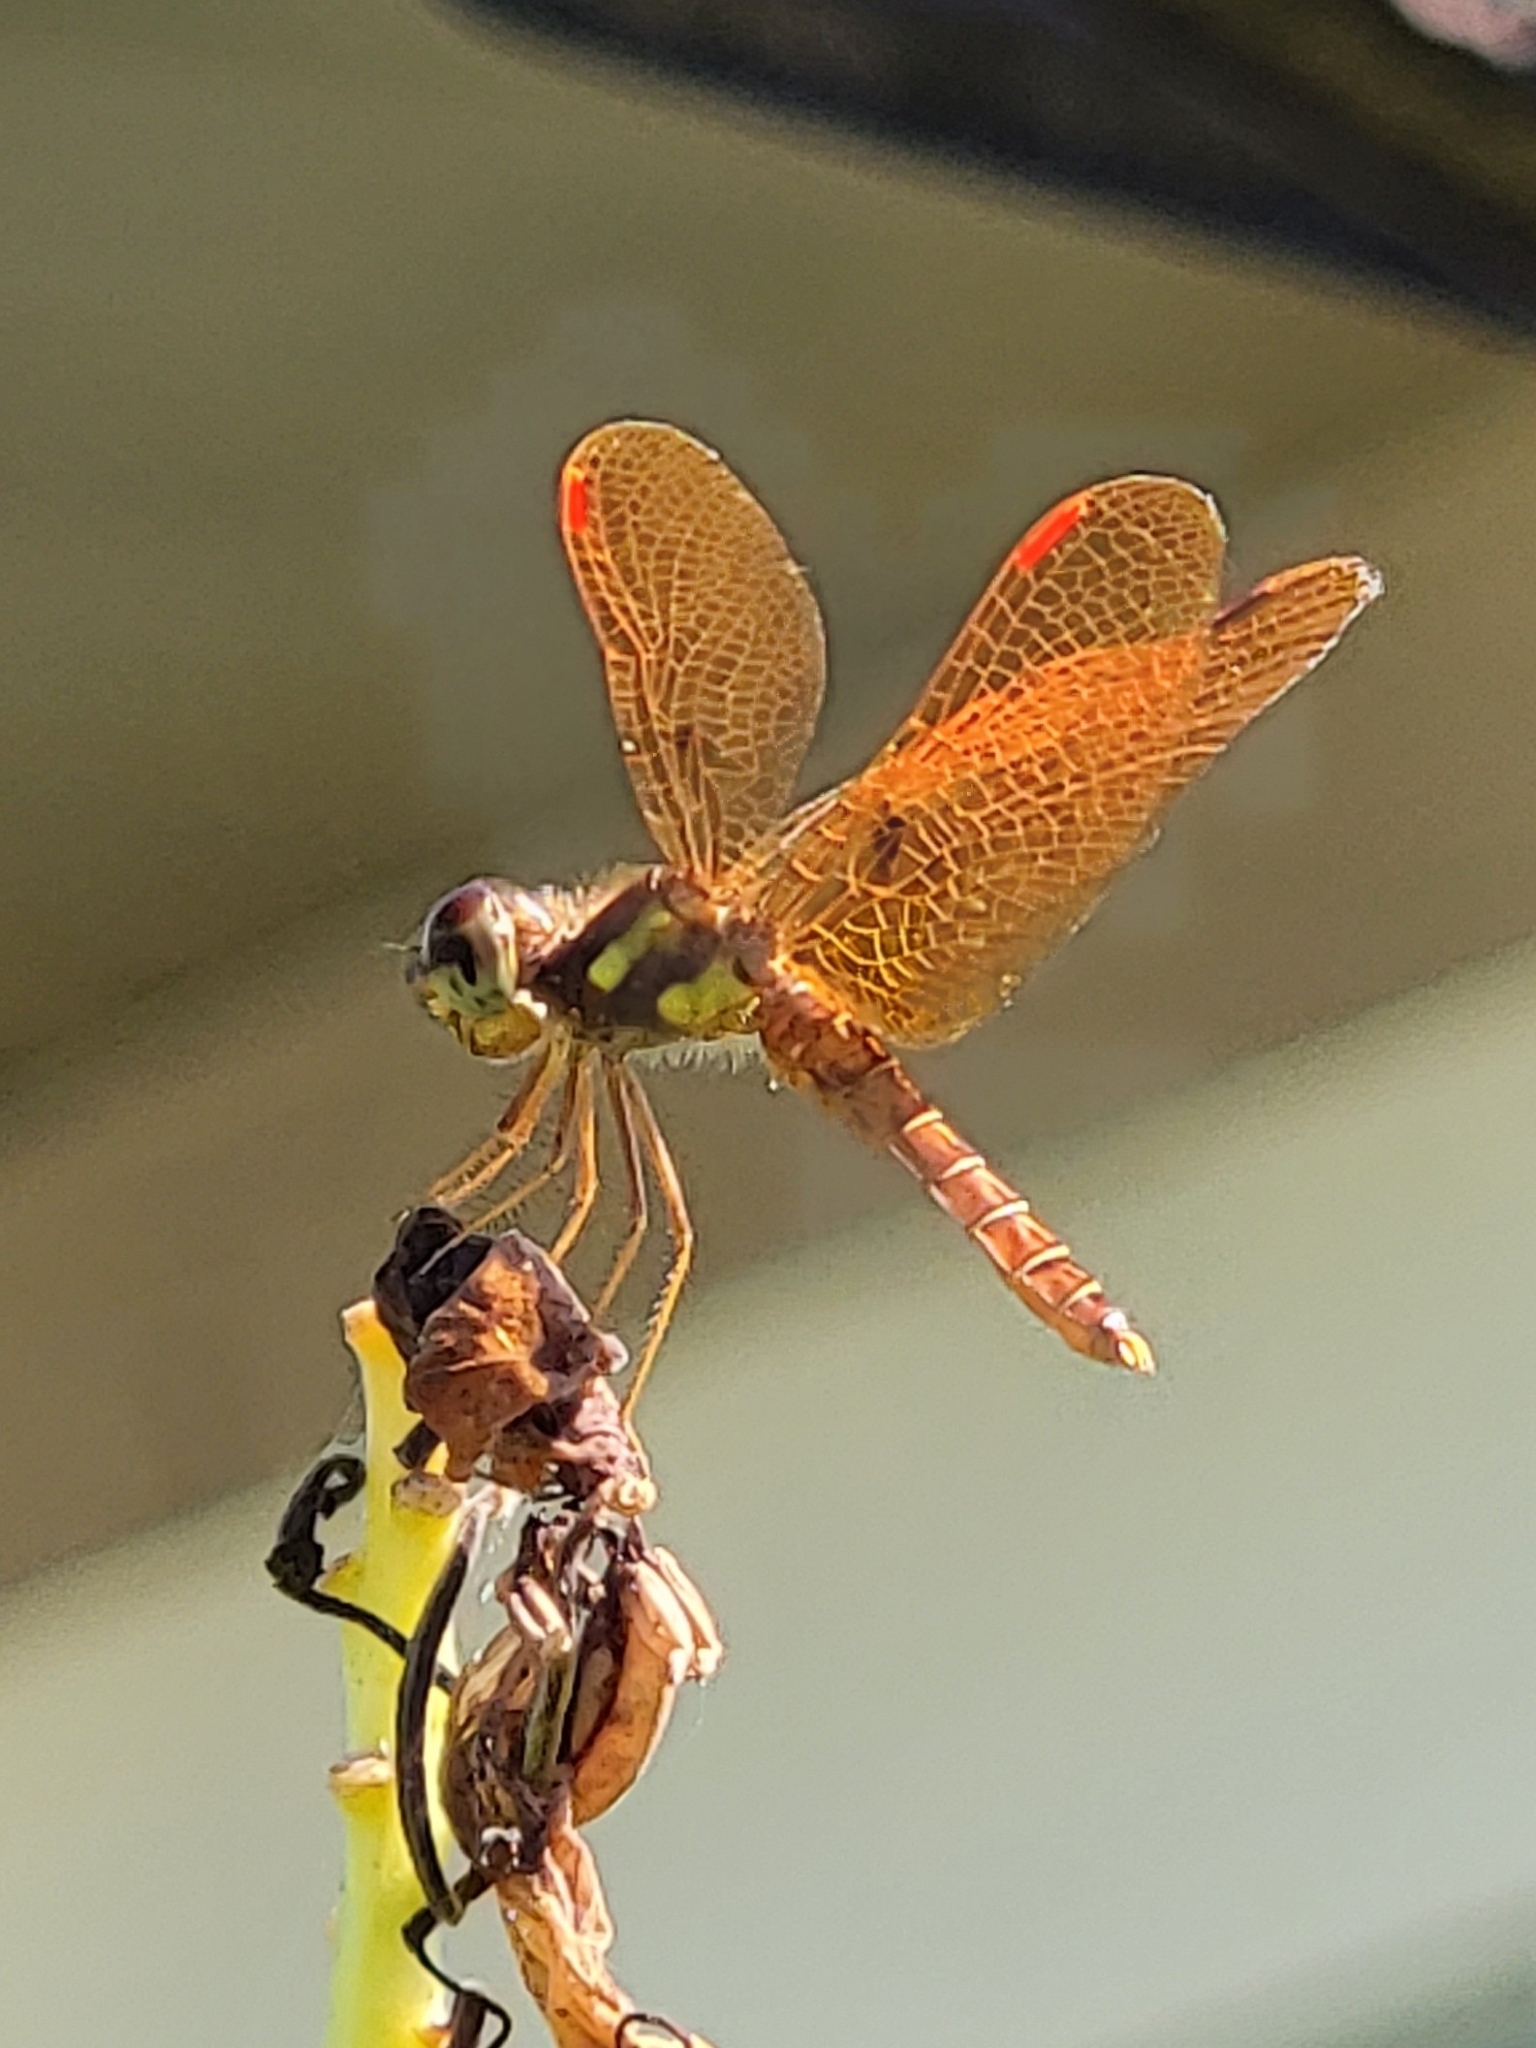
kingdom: Animalia
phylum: Arthropoda
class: Insecta
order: Odonata
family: Libellulidae
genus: Perithemis
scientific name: Perithemis tenera
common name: Eastern amberwing
